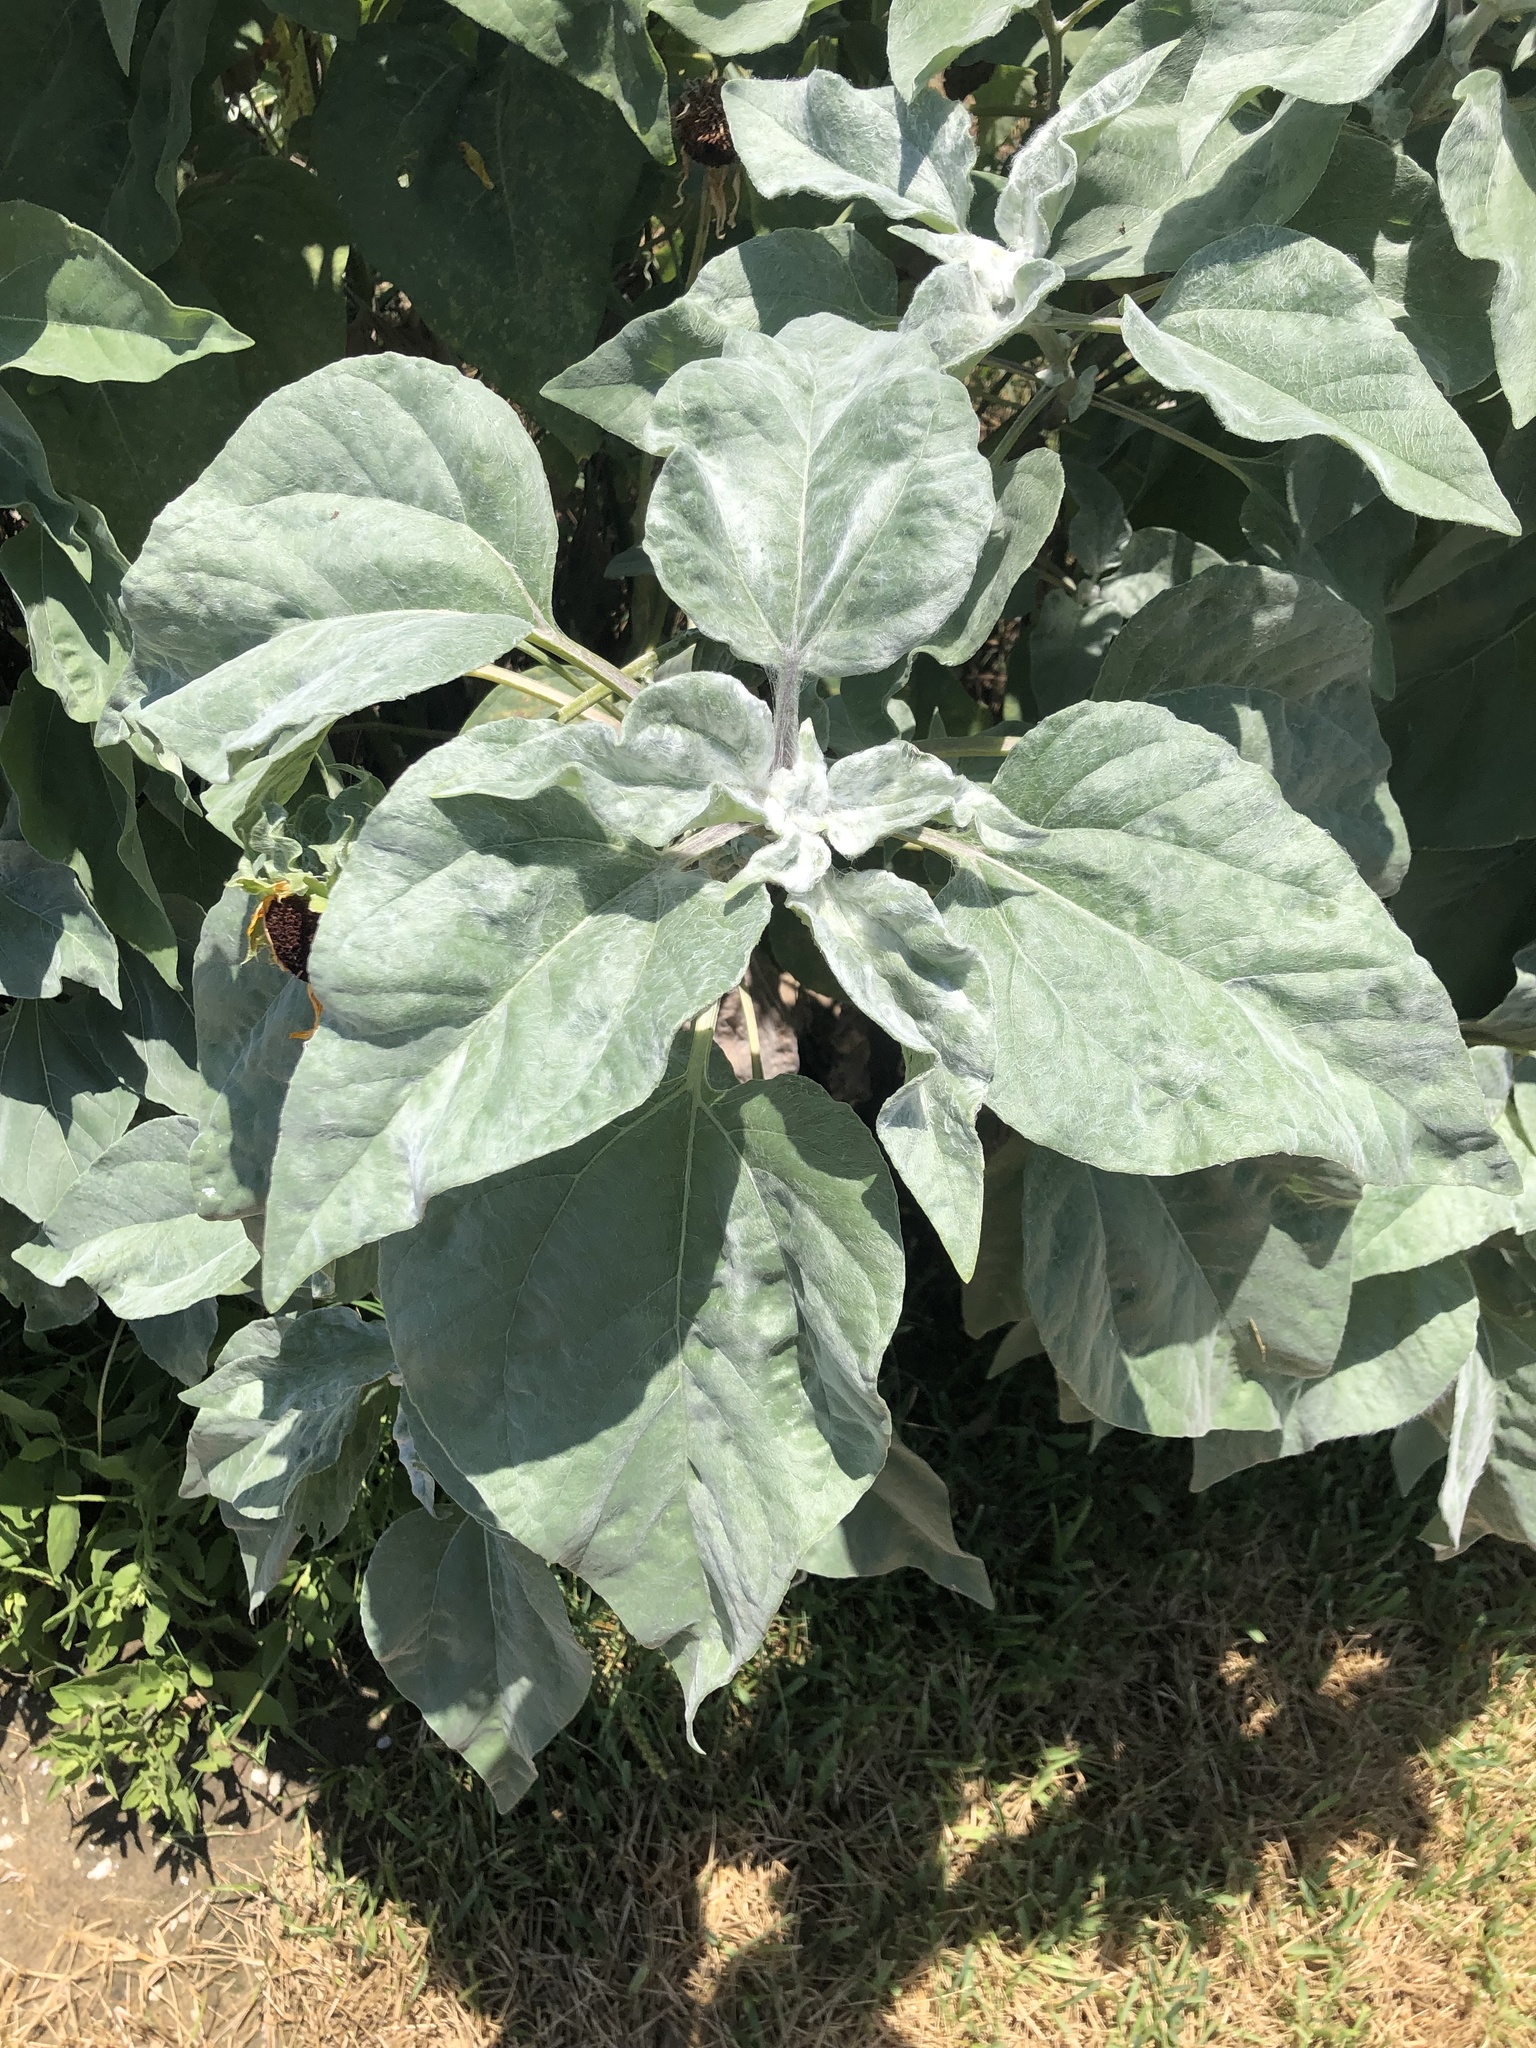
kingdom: Plantae
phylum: Tracheophyta
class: Magnoliopsida
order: Asterales
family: Asteraceae
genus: Helianthus
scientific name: Helianthus argophyllus
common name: Silverleaf sunflower
